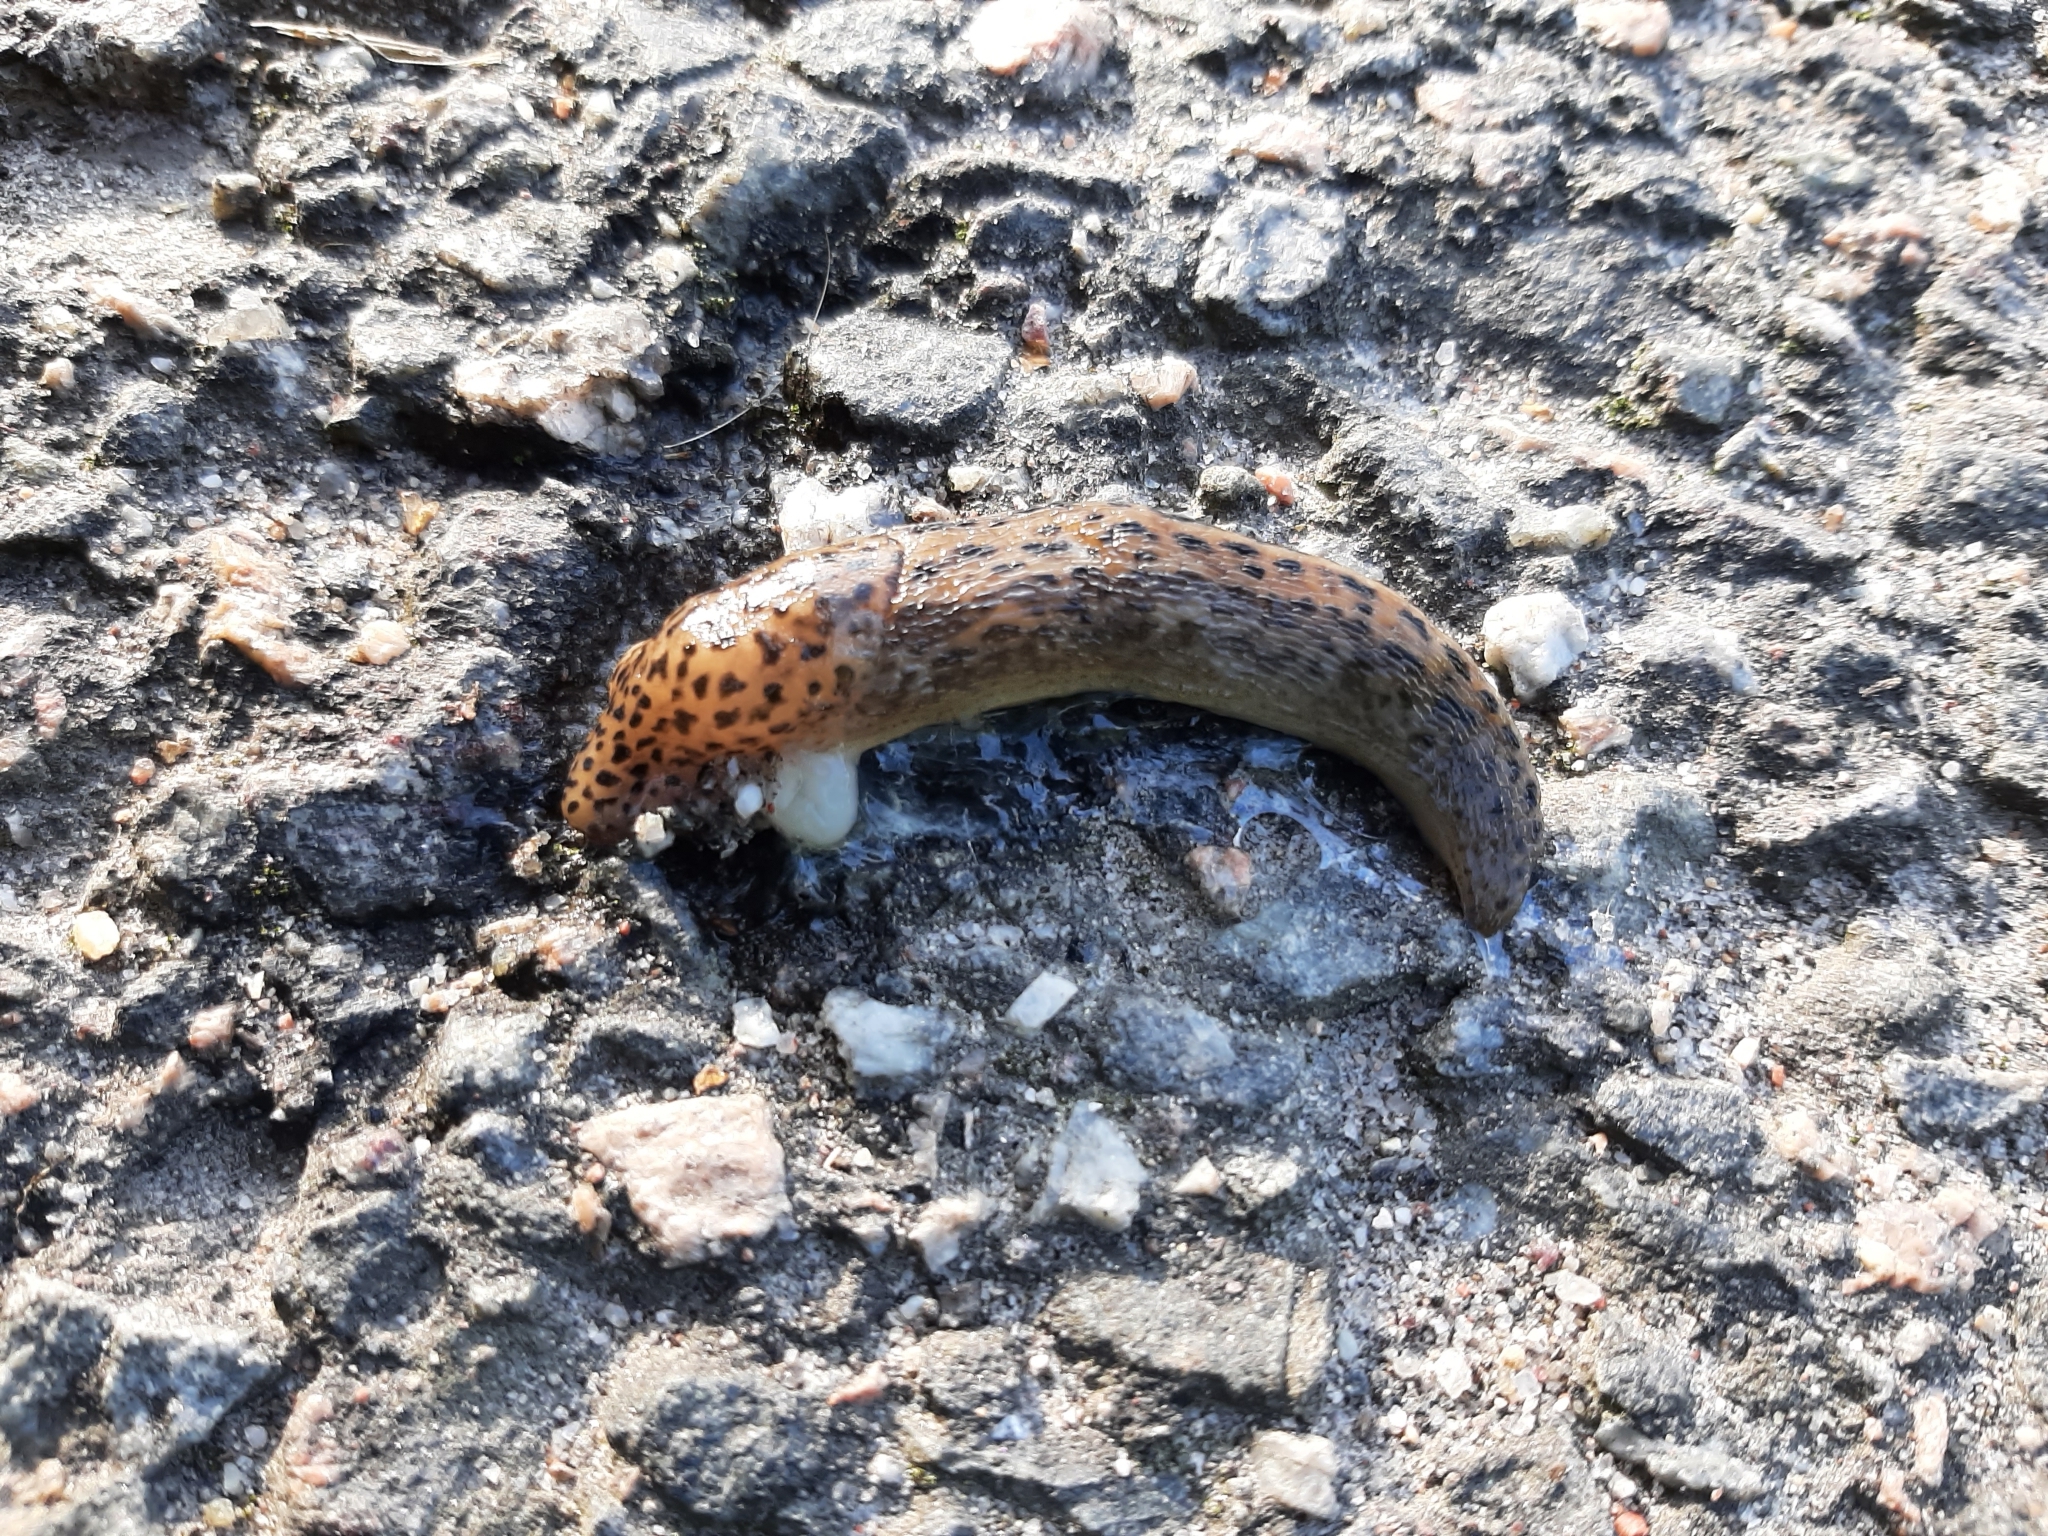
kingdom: Animalia
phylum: Mollusca
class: Gastropoda
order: Stylommatophora
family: Limacidae
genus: Limax
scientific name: Limax maximus
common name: Great grey slug
